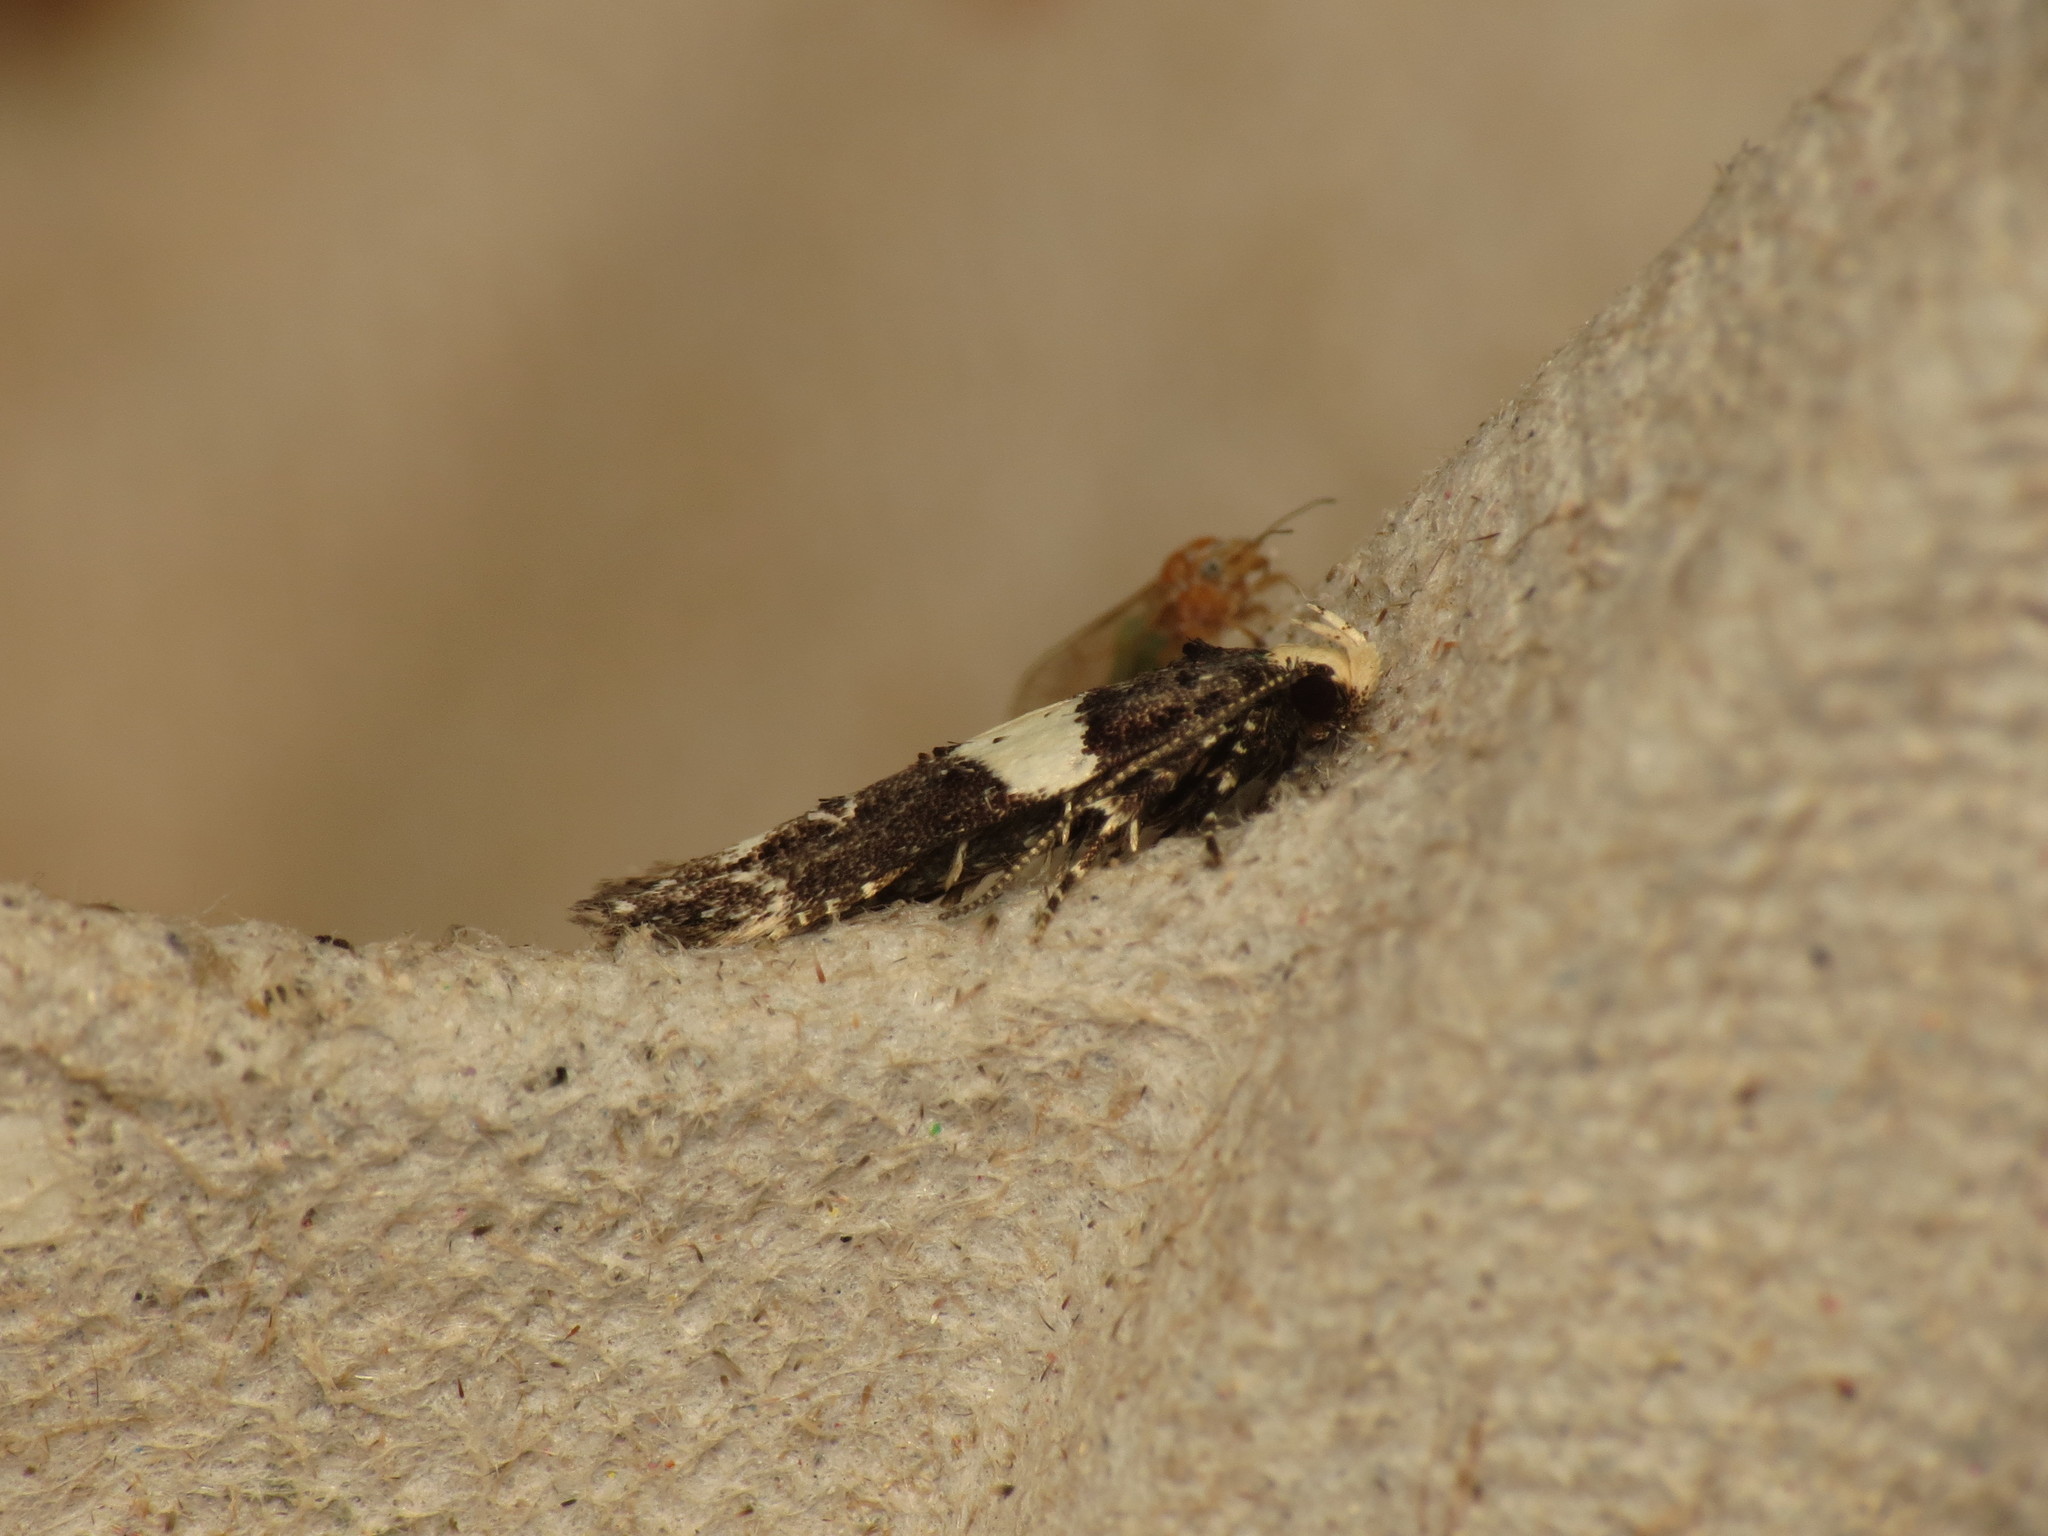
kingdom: Animalia
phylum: Arthropoda
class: Insecta
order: Lepidoptera
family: Gelechiidae
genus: Recurvaria
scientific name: Recurvaria leucatella
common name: White-barred groundling
